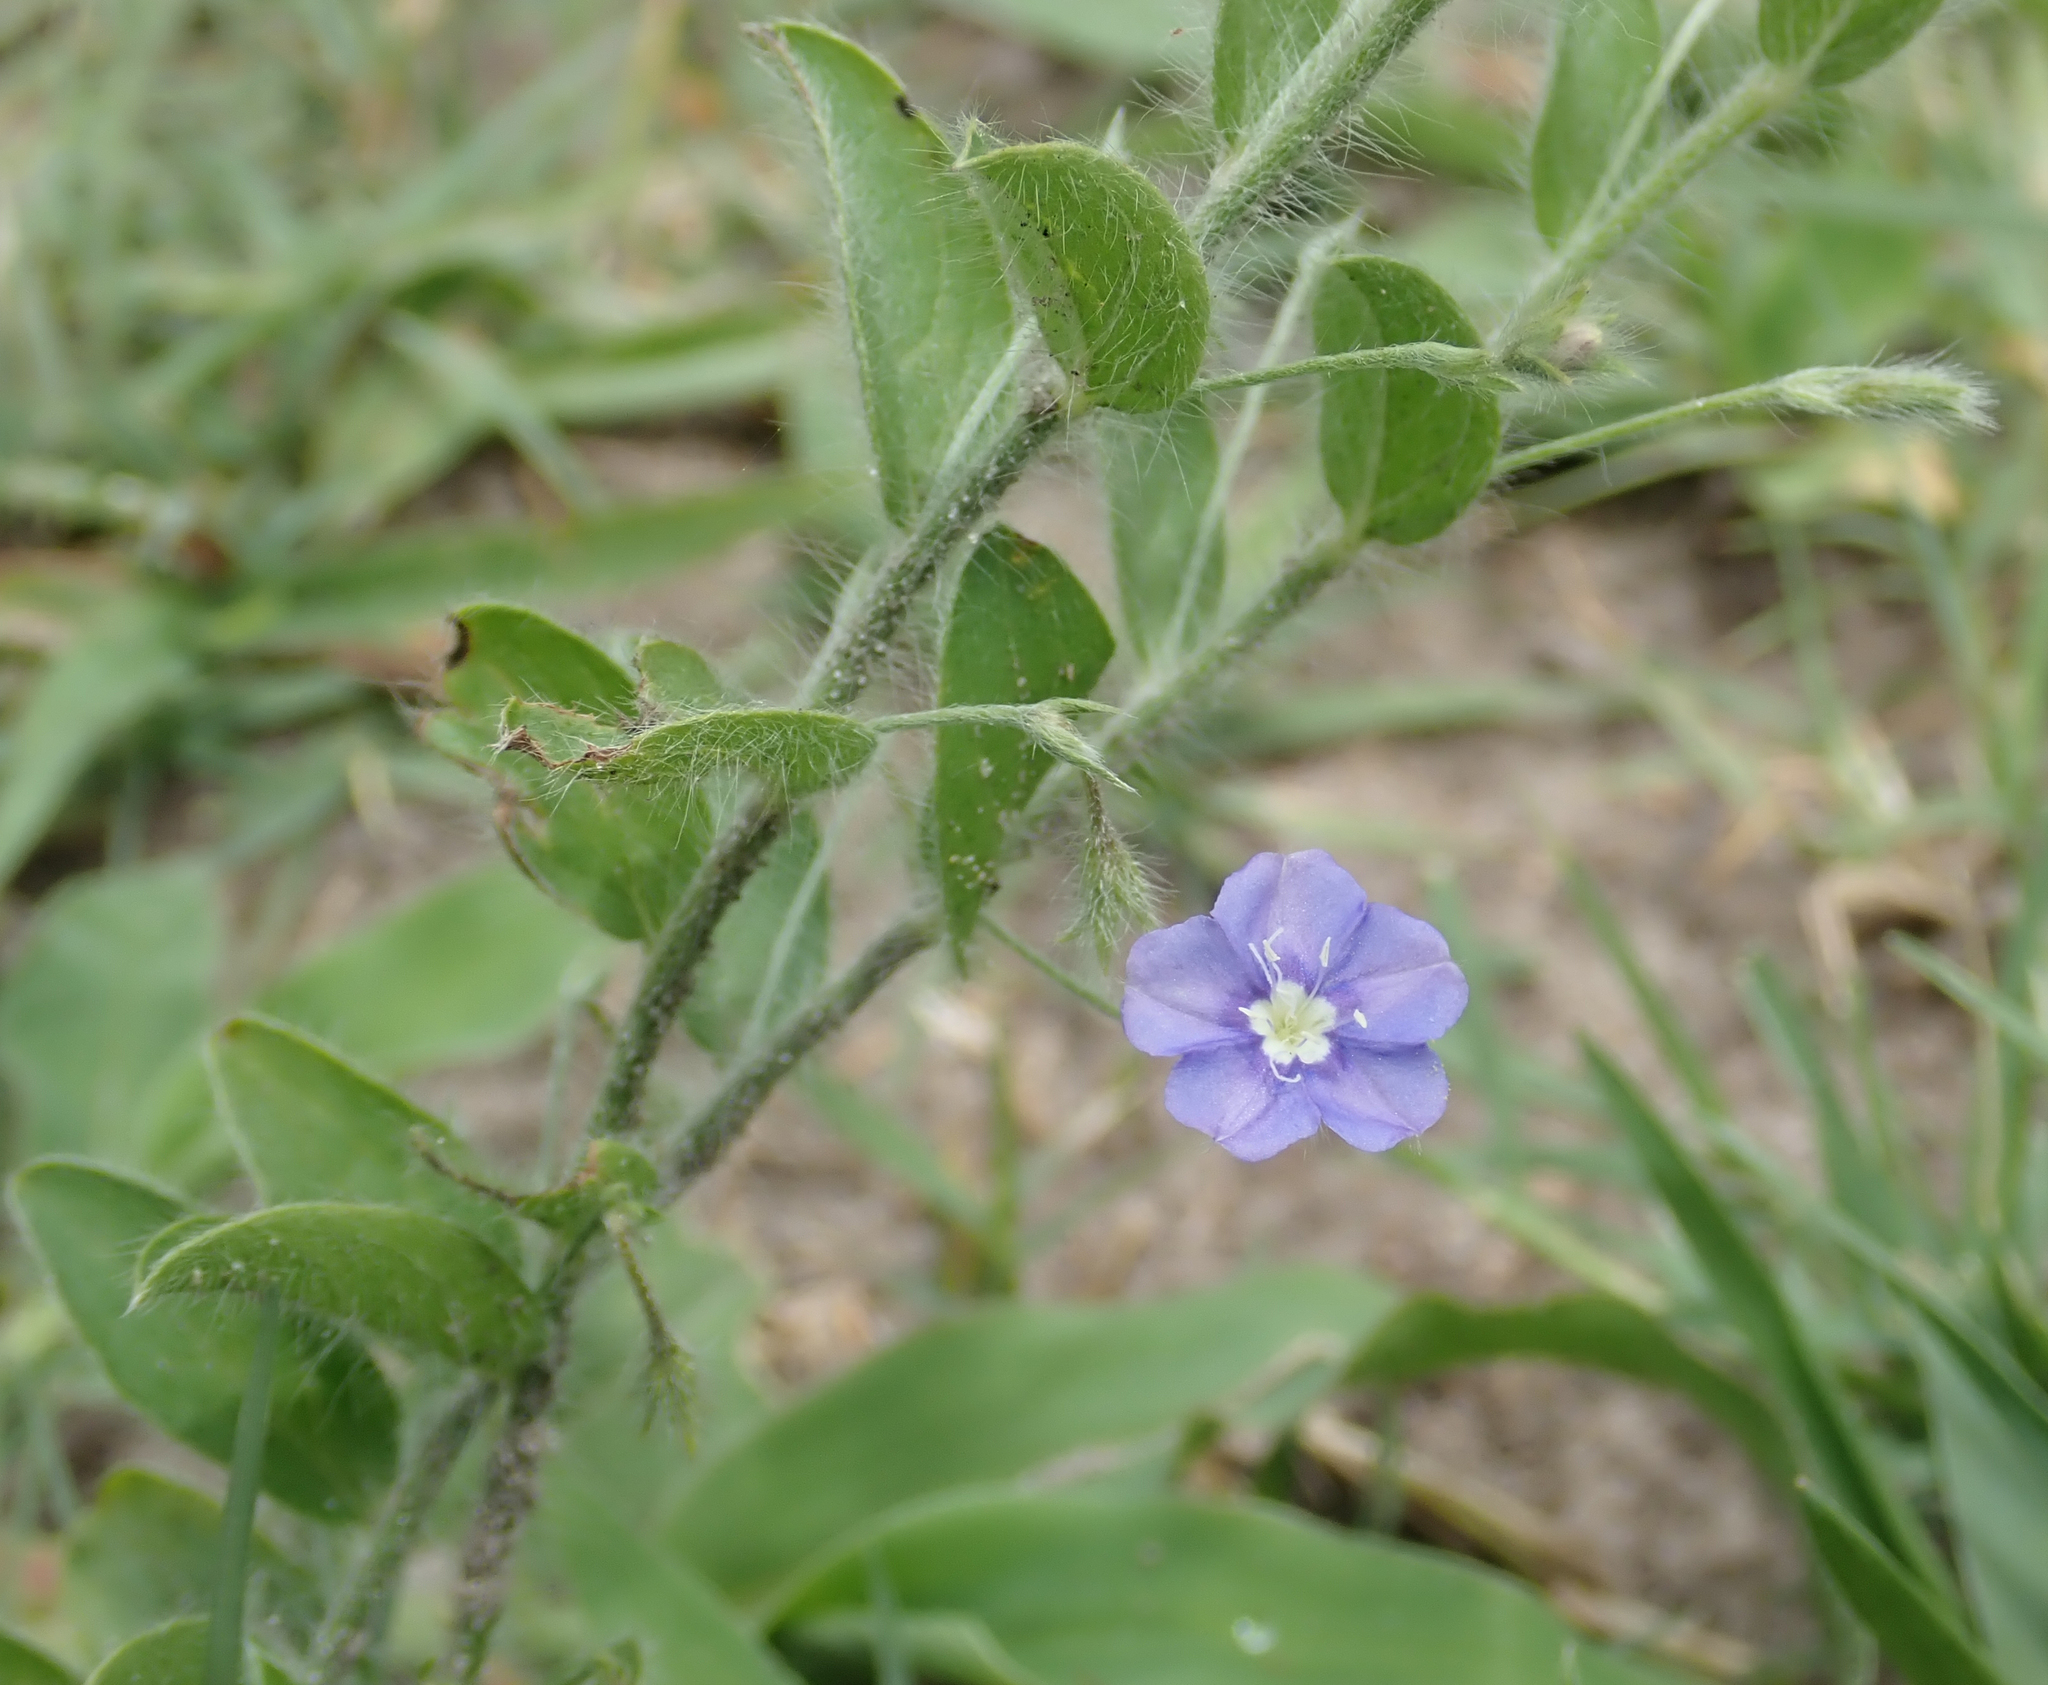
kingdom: Plantae
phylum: Tracheophyta
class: Magnoliopsida
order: Solanales
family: Convolvulaceae
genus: Evolvulus
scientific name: Evolvulus alsinoides
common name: Slender dwarf morning-glory
